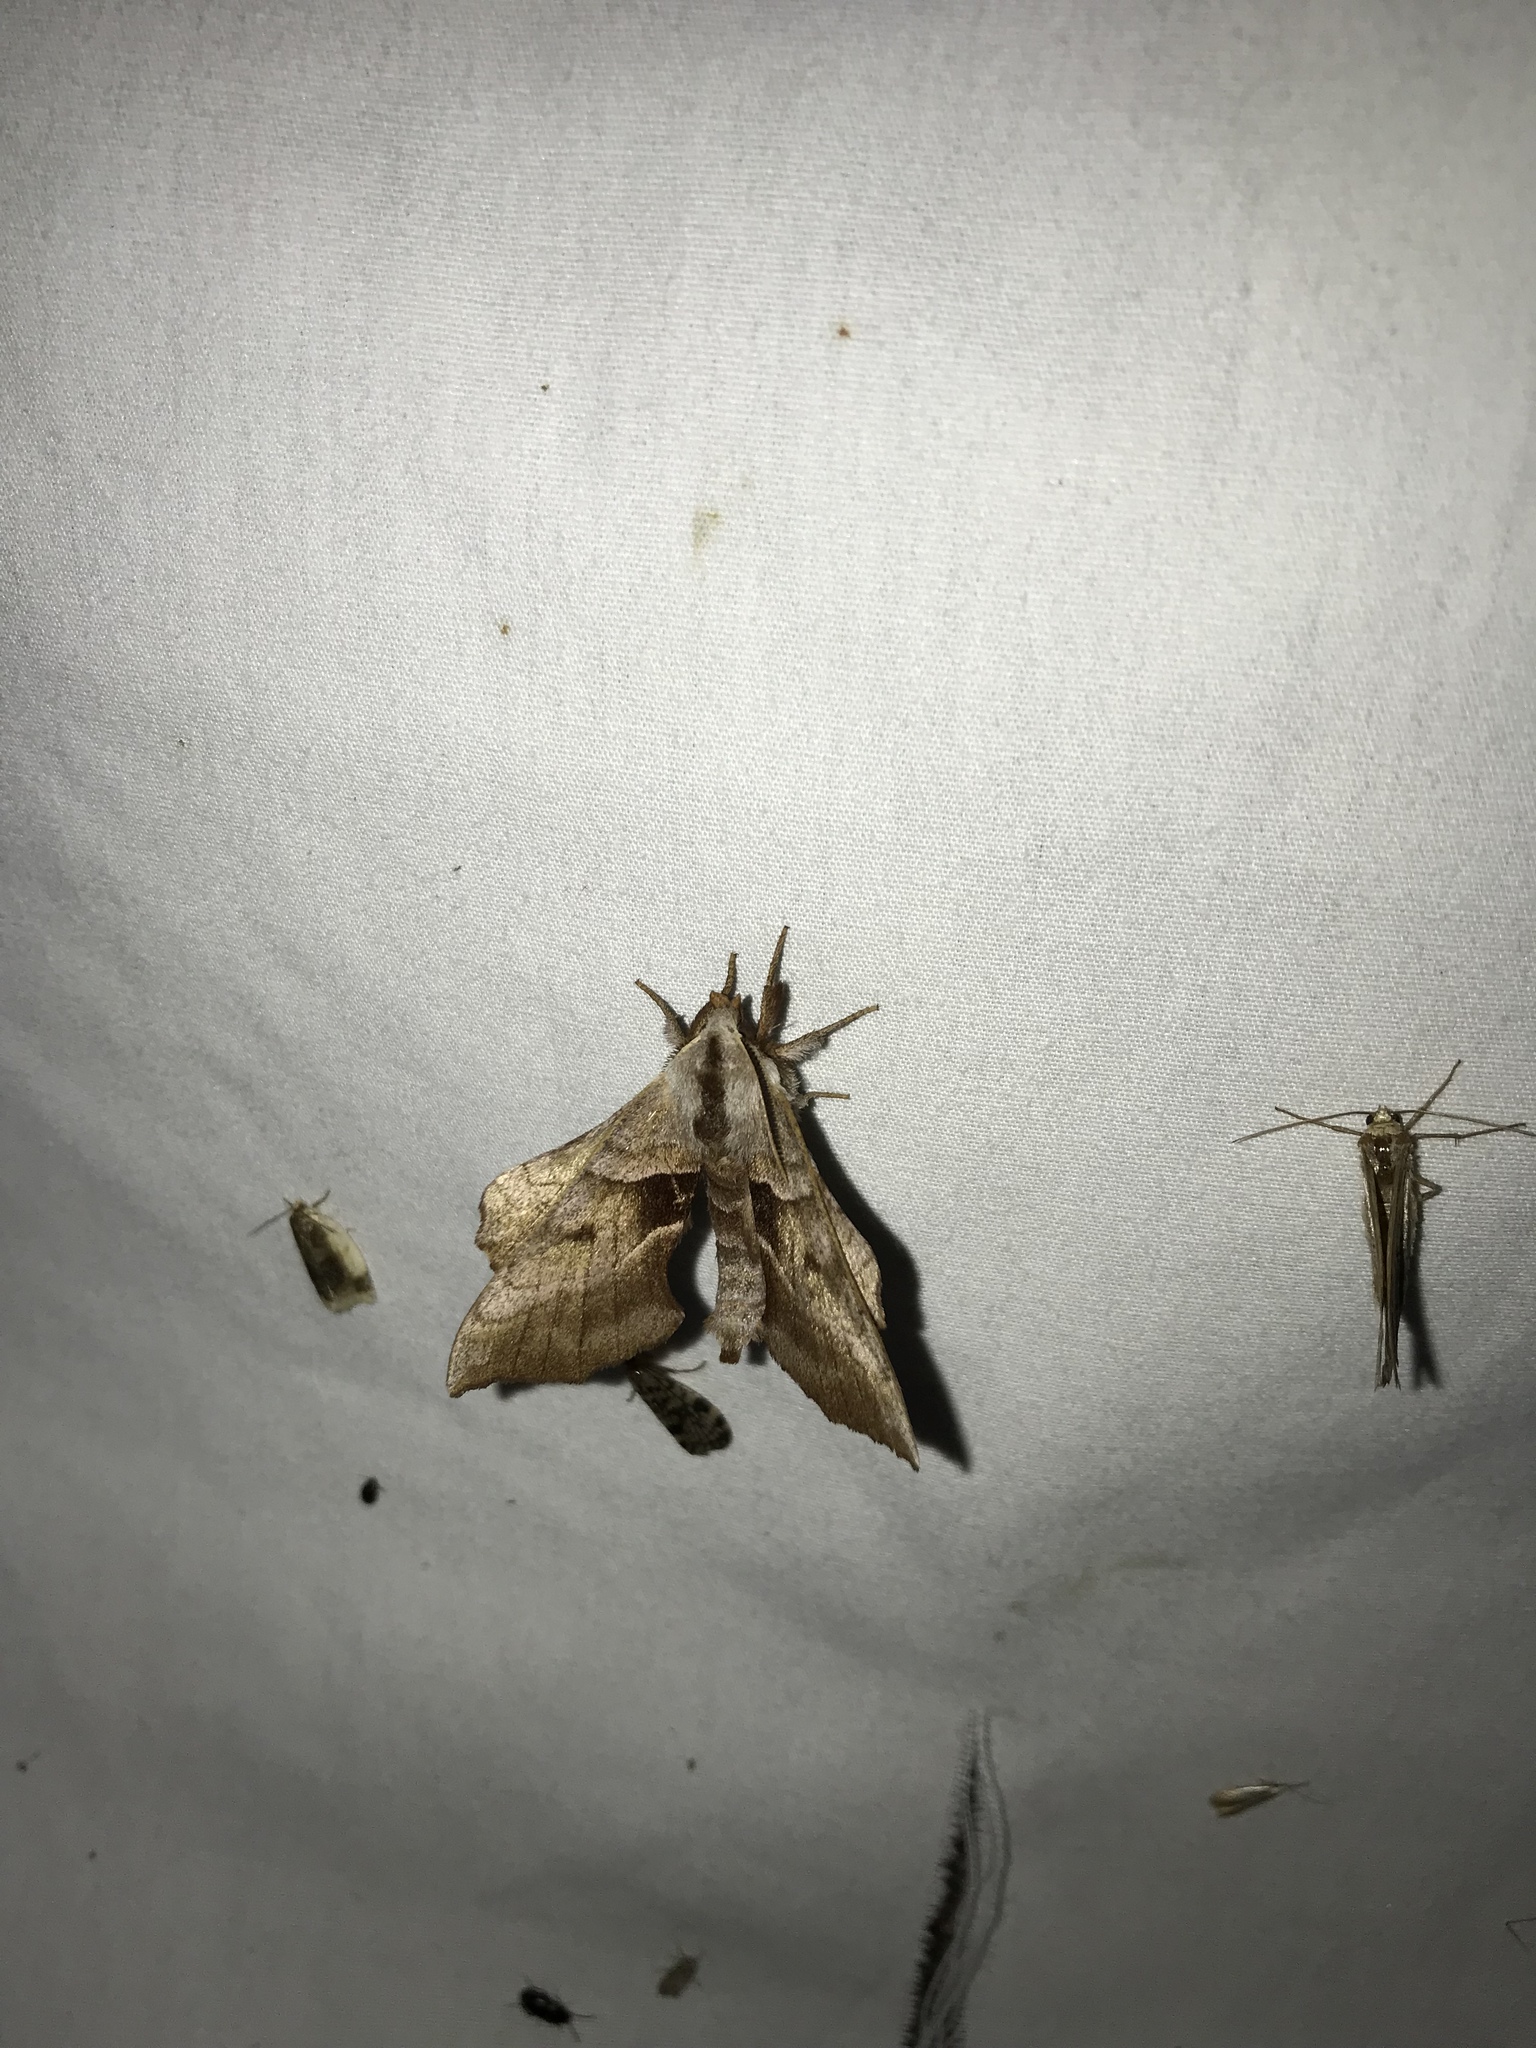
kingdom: Animalia
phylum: Arthropoda
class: Insecta
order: Lepidoptera
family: Sphingidae
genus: Amorpha
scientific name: Amorpha juglandis
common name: Walnut sphinx
